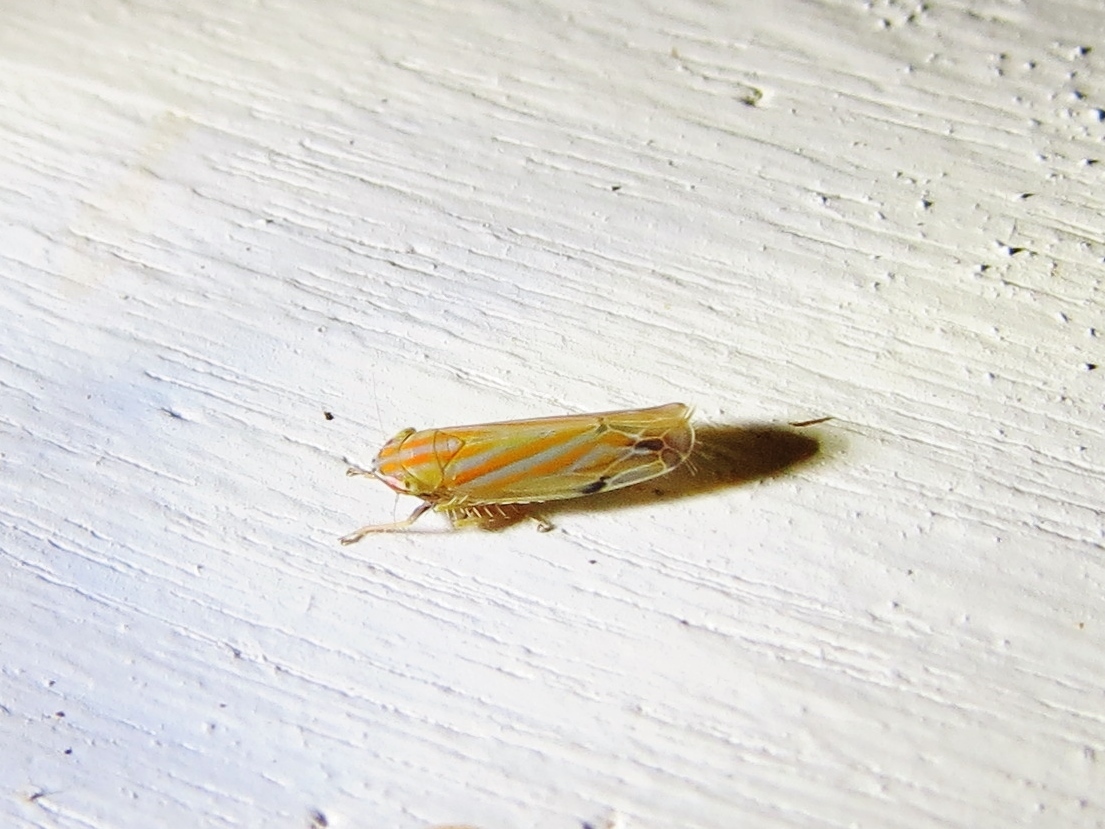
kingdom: Animalia
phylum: Arthropoda
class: Insecta
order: Hemiptera
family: Cicadellidae
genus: Deltanus
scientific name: Deltanus texanus
